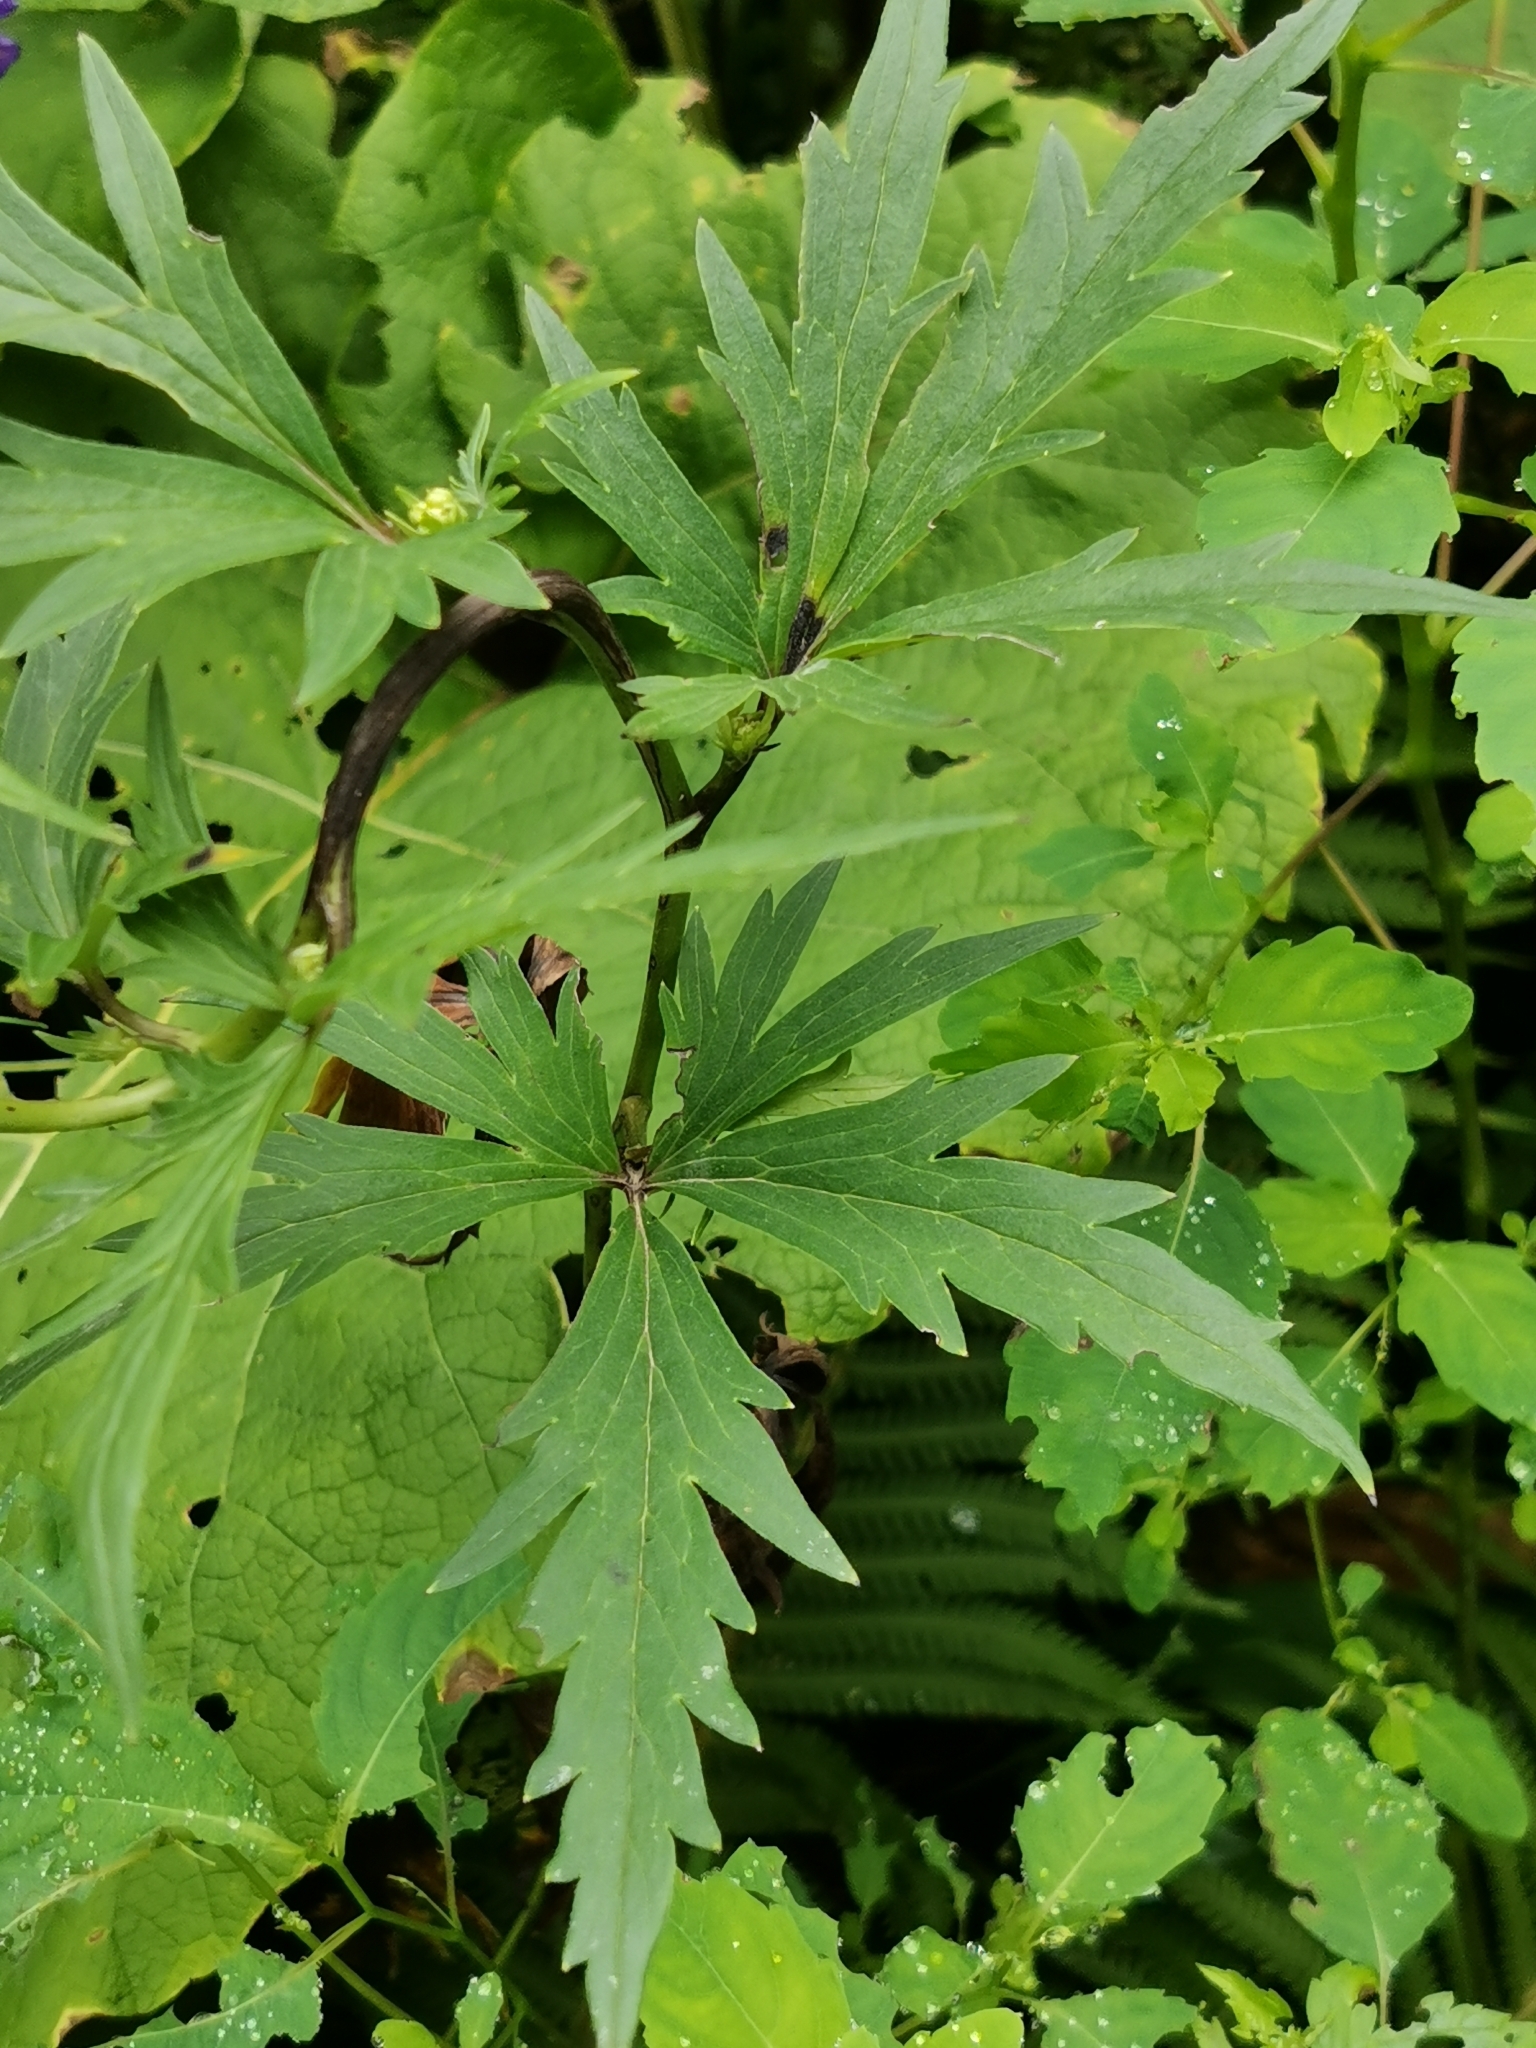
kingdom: Plantae
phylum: Tracheophyta
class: Magnoliopsida
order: Ranunculales
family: Ranunculaceae
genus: Aconitum
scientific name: Aconitum jaluense
